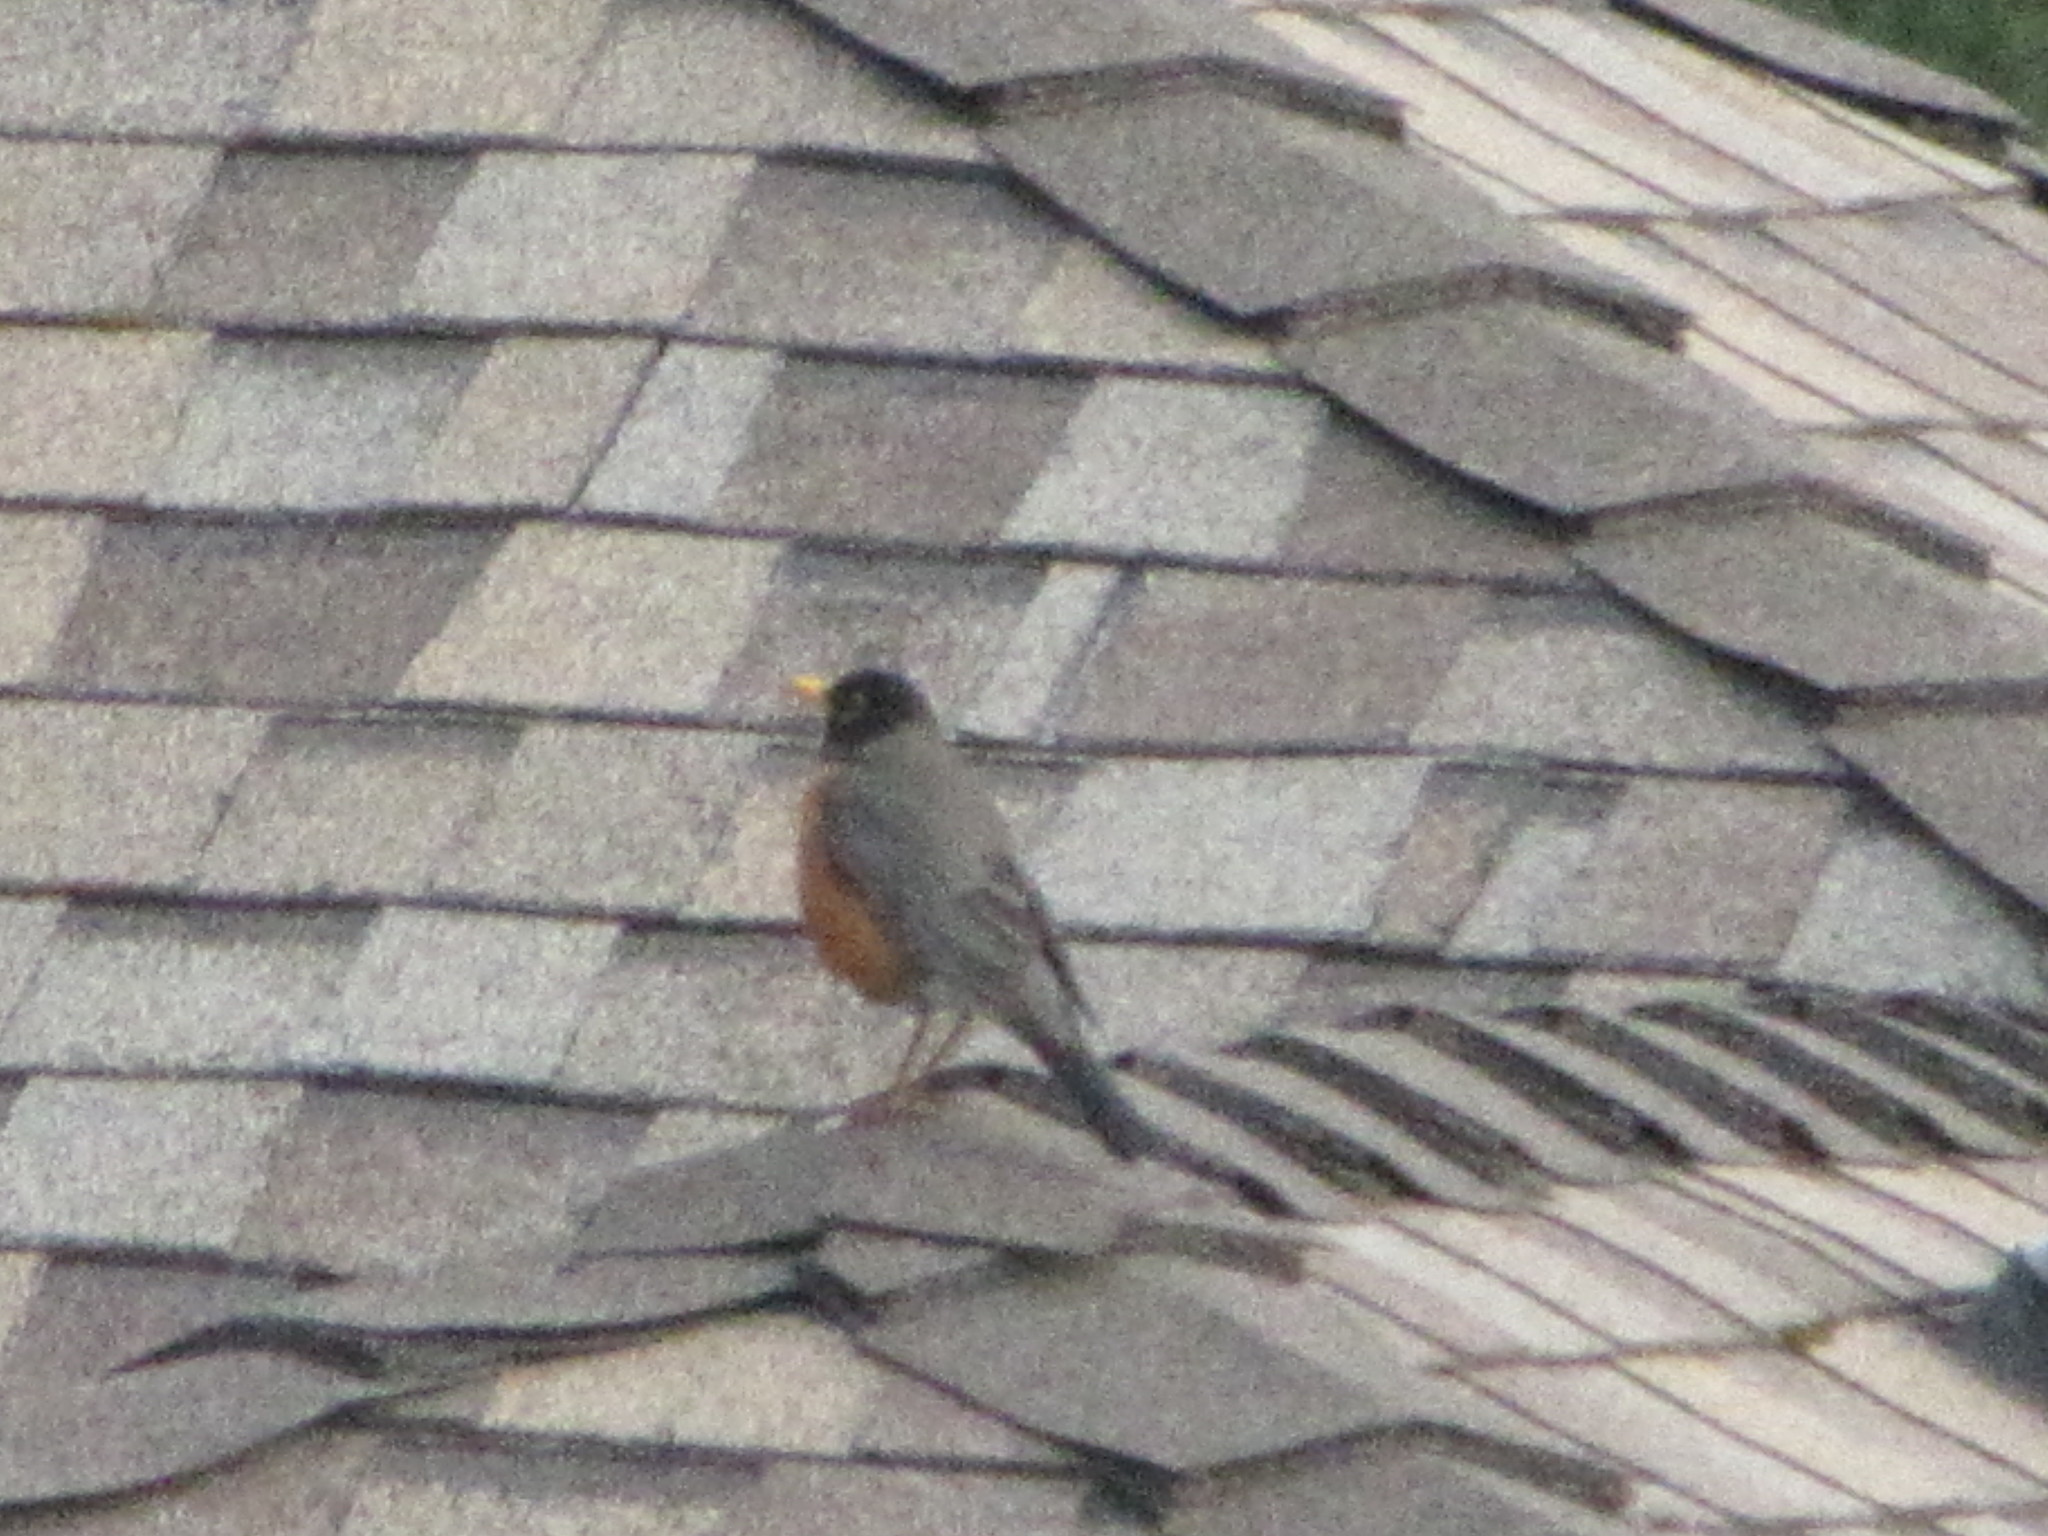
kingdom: Animalia
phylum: Chordata
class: Aves
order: Passeriformes
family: Turdidae
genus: Turdus
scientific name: Turdus migratorius
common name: American robin
